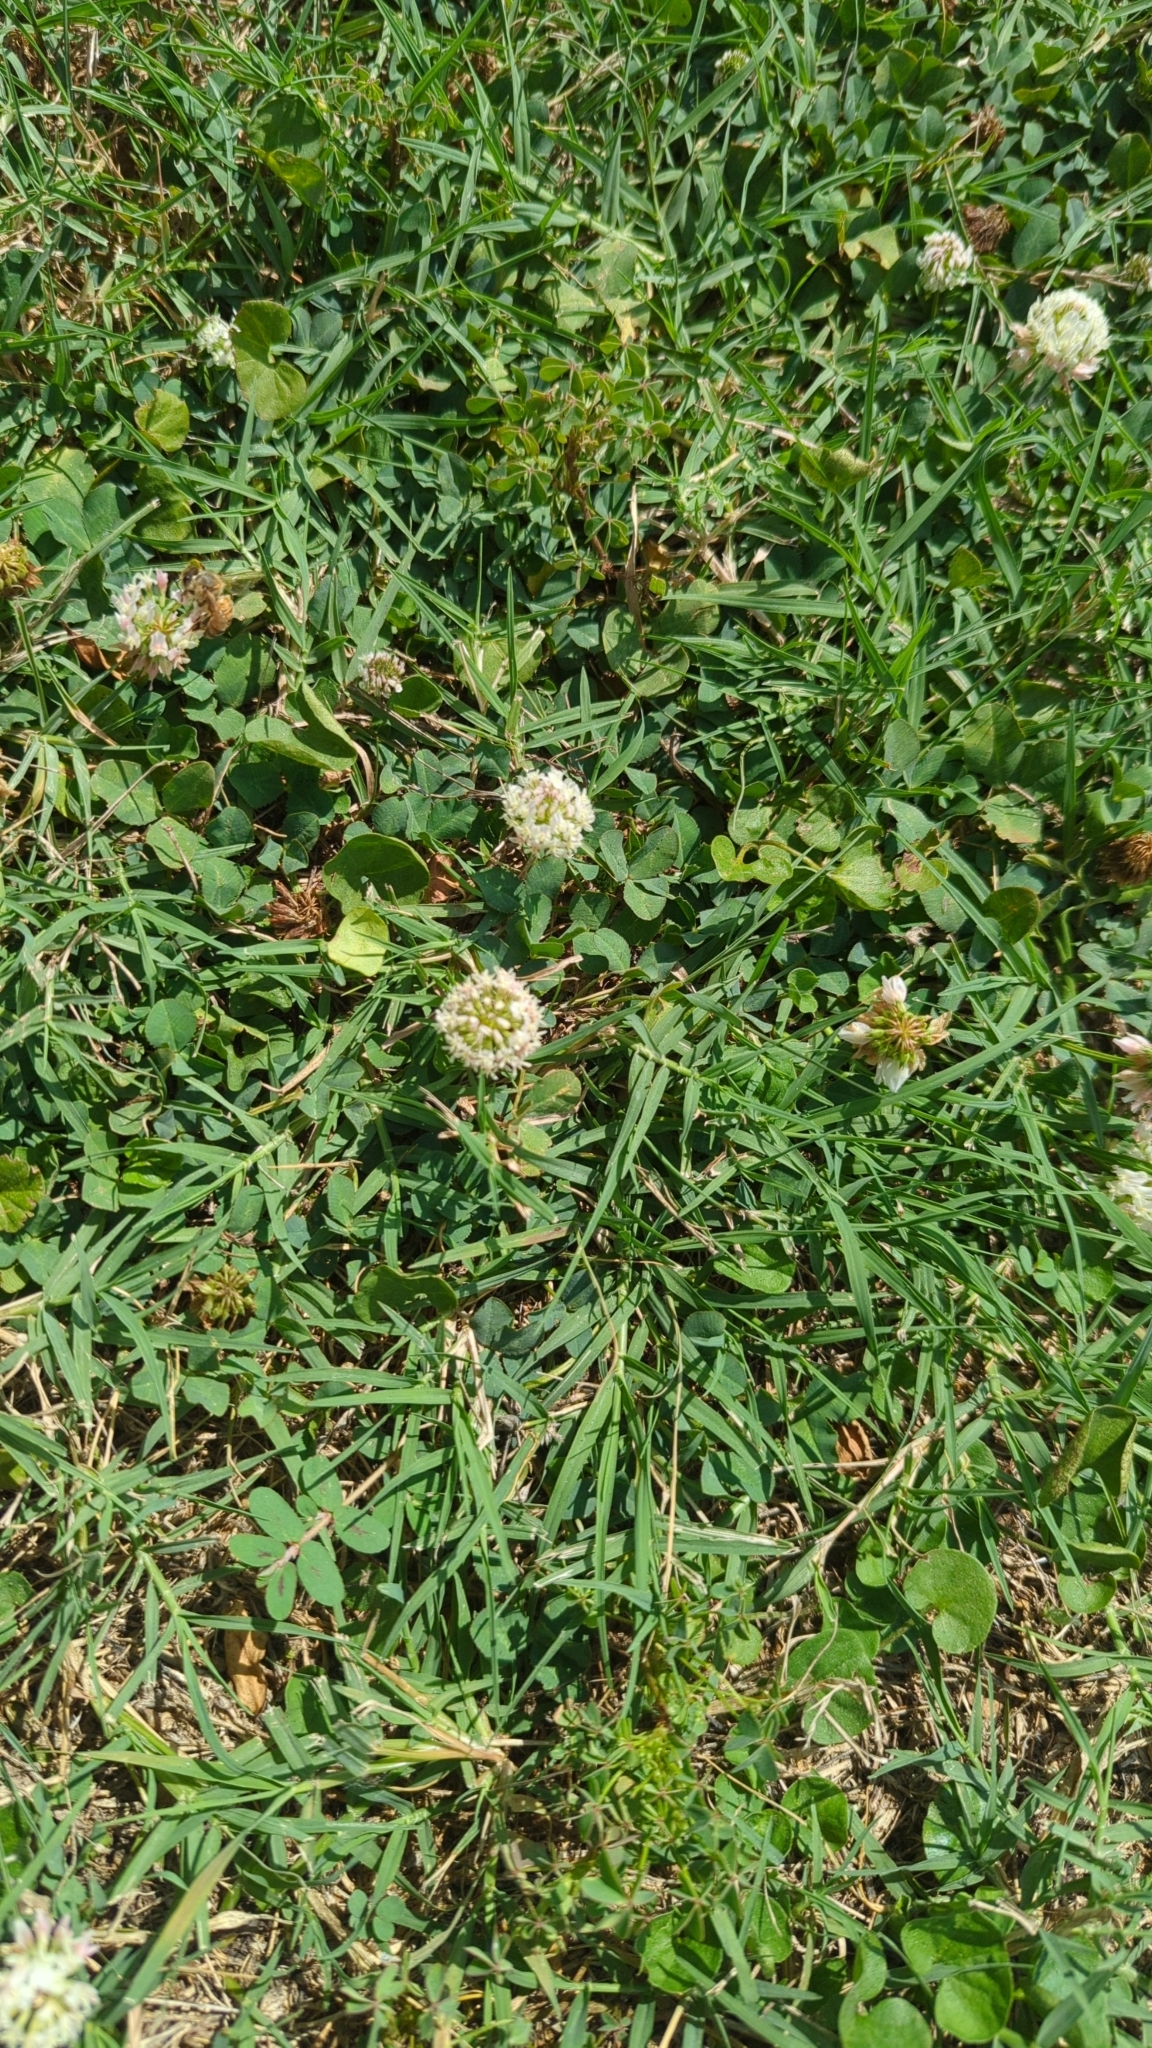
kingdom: Plantae
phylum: Tracheophyta
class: Magnoliopsida
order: Fabales
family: Fabaceae
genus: Trifolium
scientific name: Trifolium repens
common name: White clover
